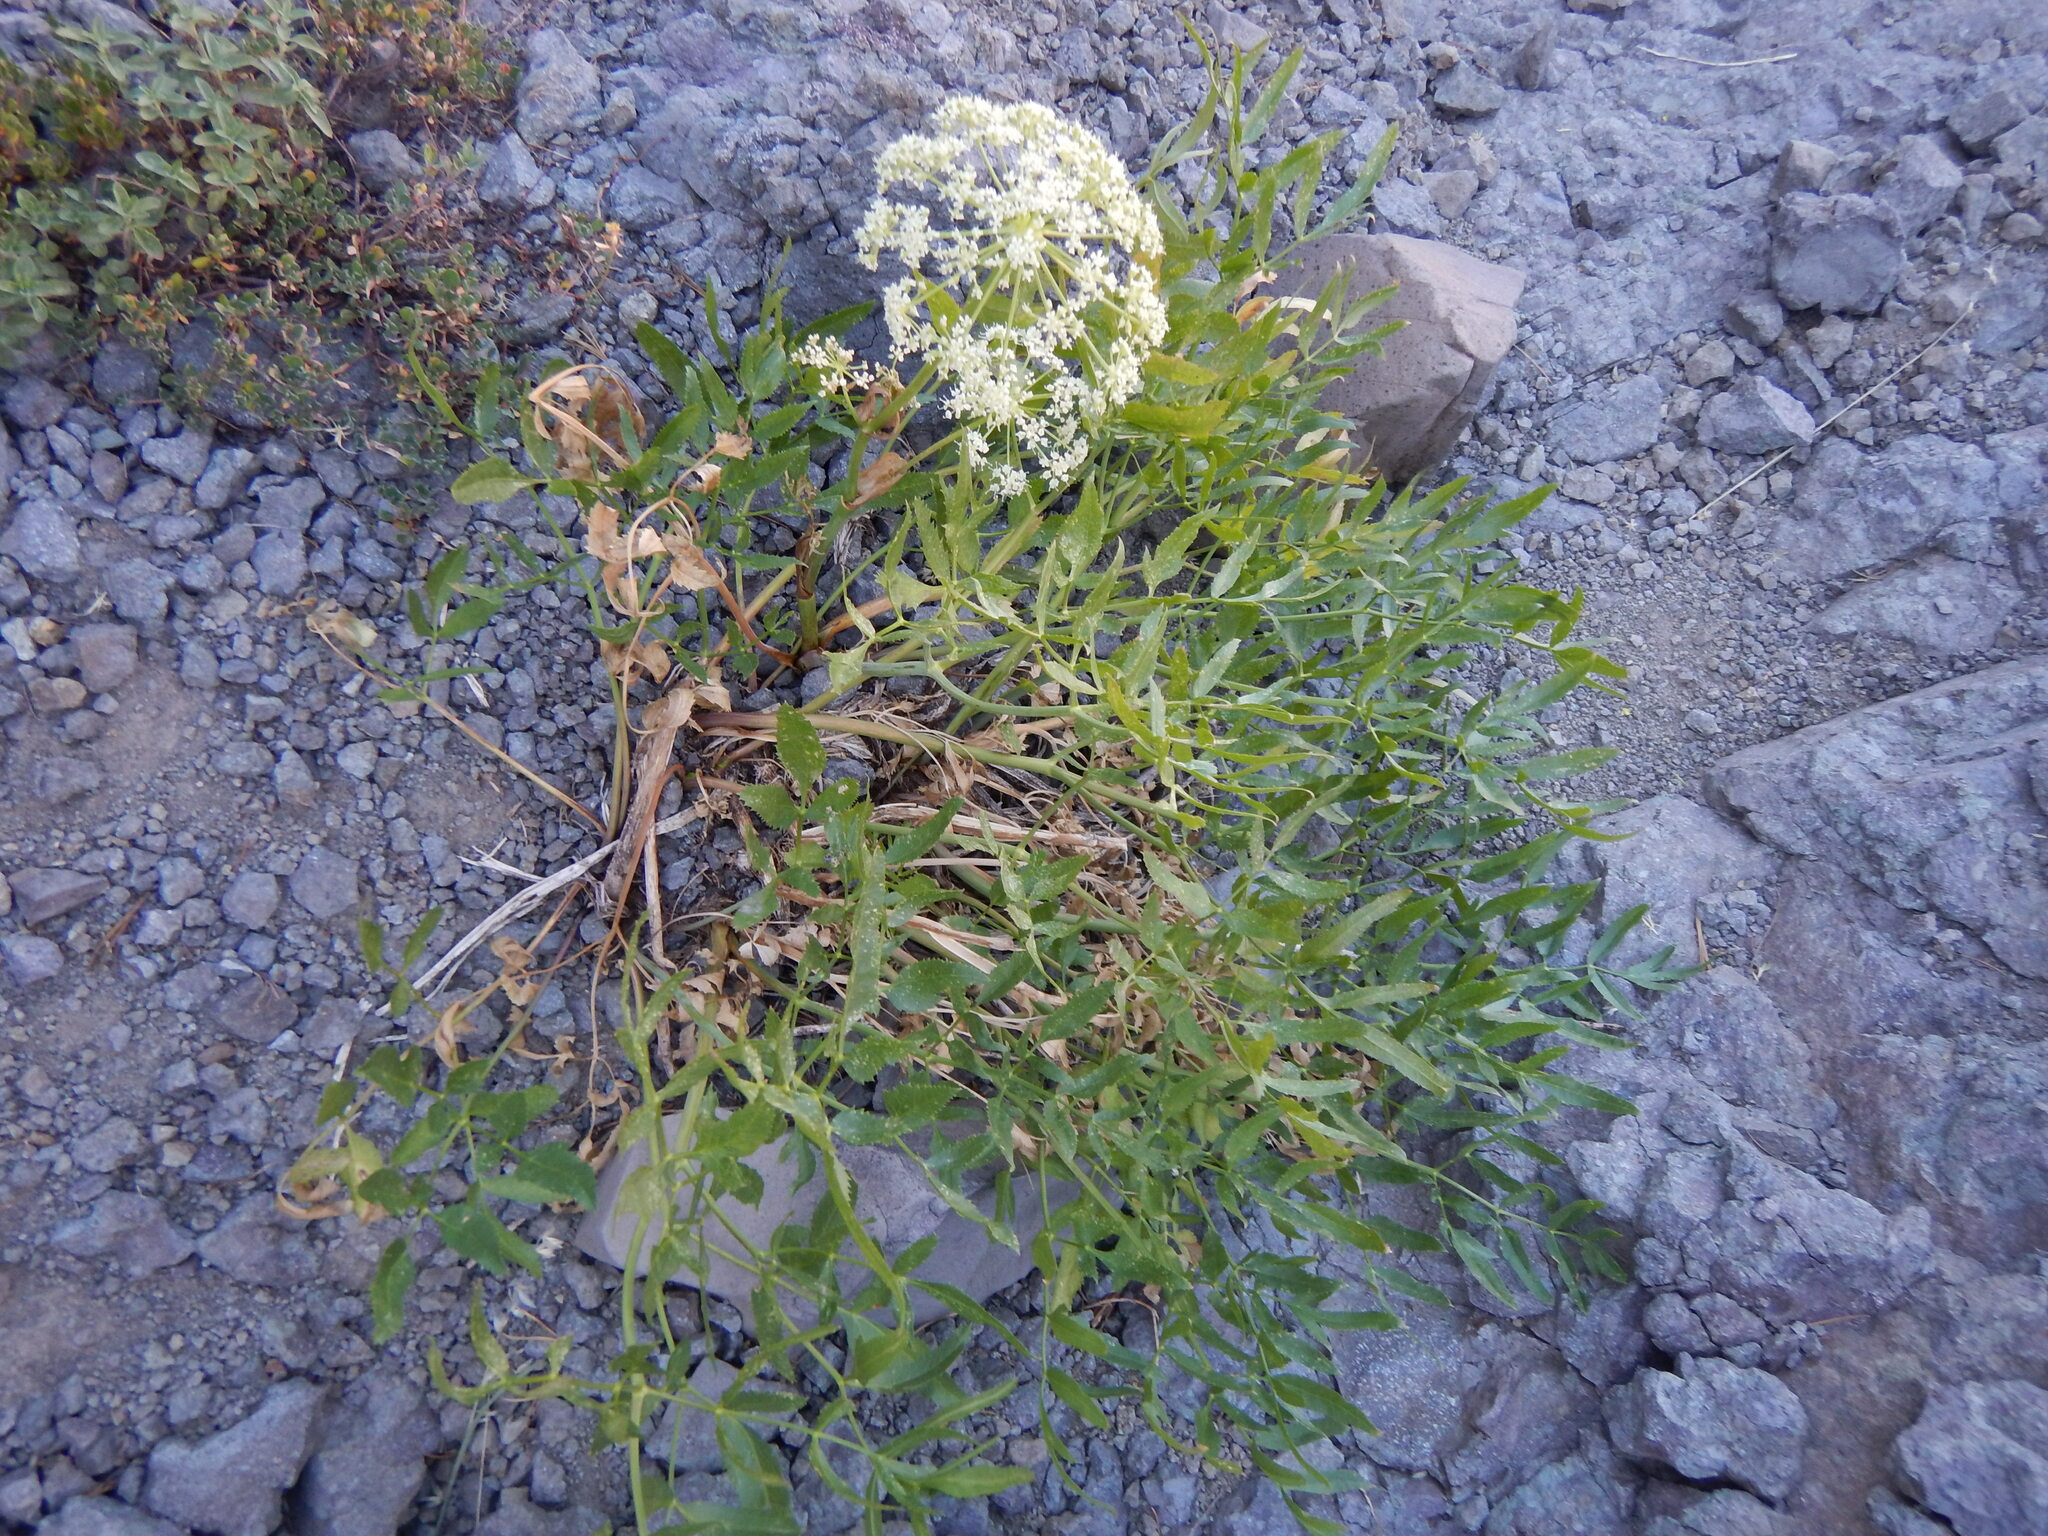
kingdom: Plantae
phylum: Tracheophyta
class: Magnoliopsida
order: Apiales
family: Apiaceae
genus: Angelica
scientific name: Angelica breweri
